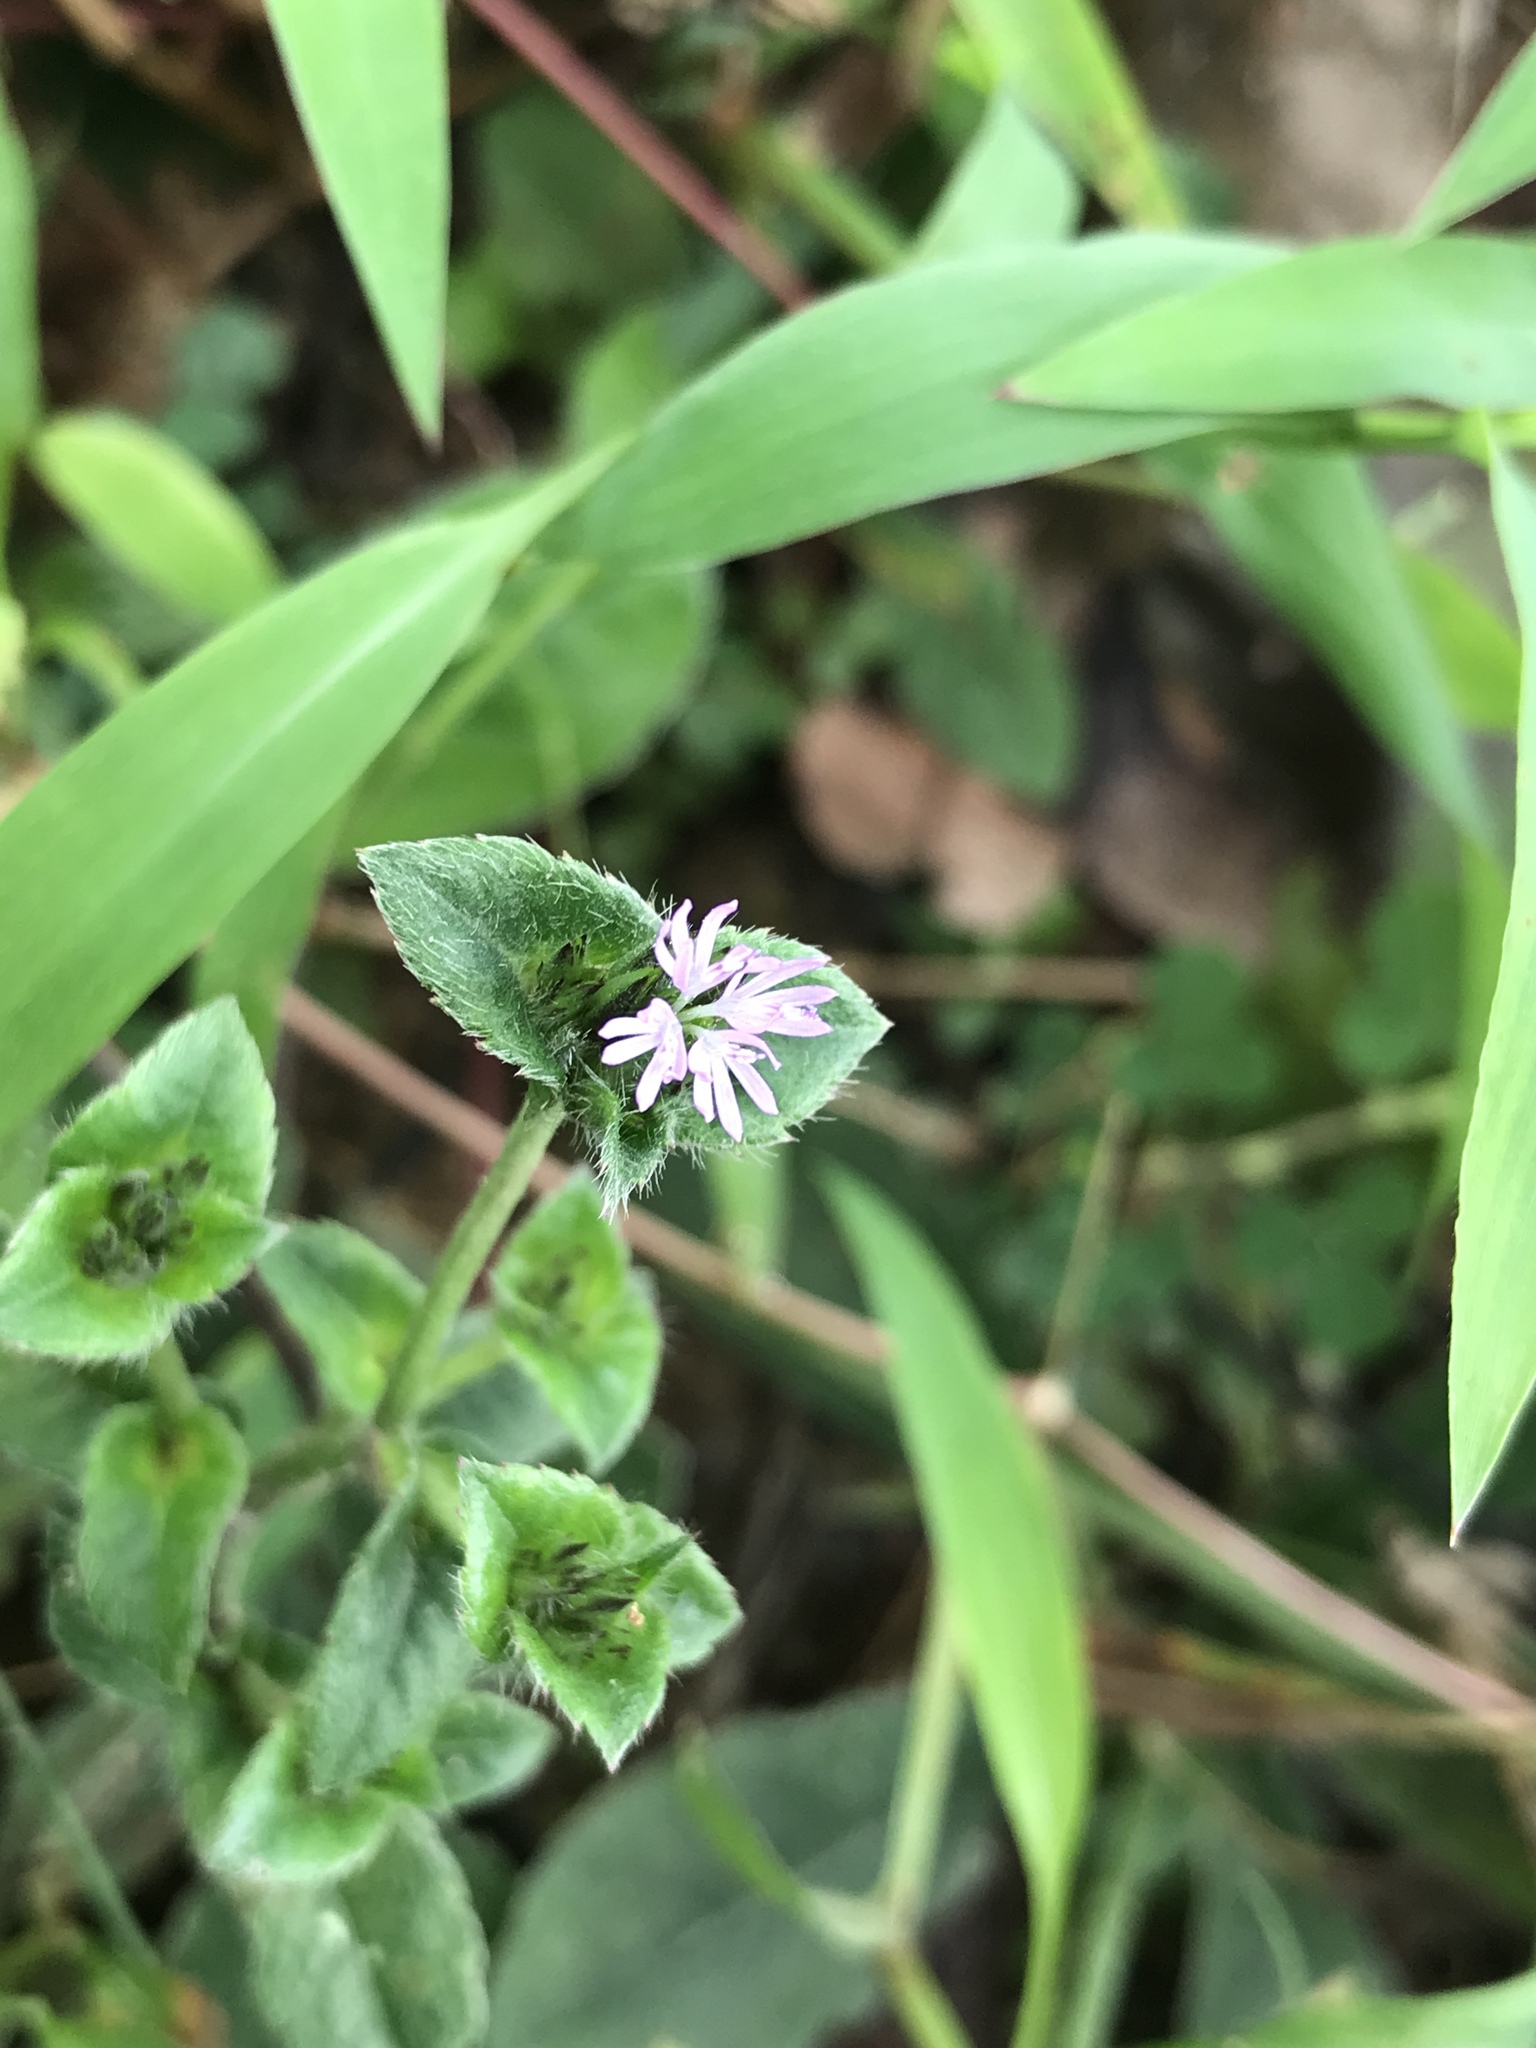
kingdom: Plantae
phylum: Tracheophyta
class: Magnoliopsida
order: Asterales
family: Asteraceae
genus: Elephantopus
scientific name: Elephantopus scaber
